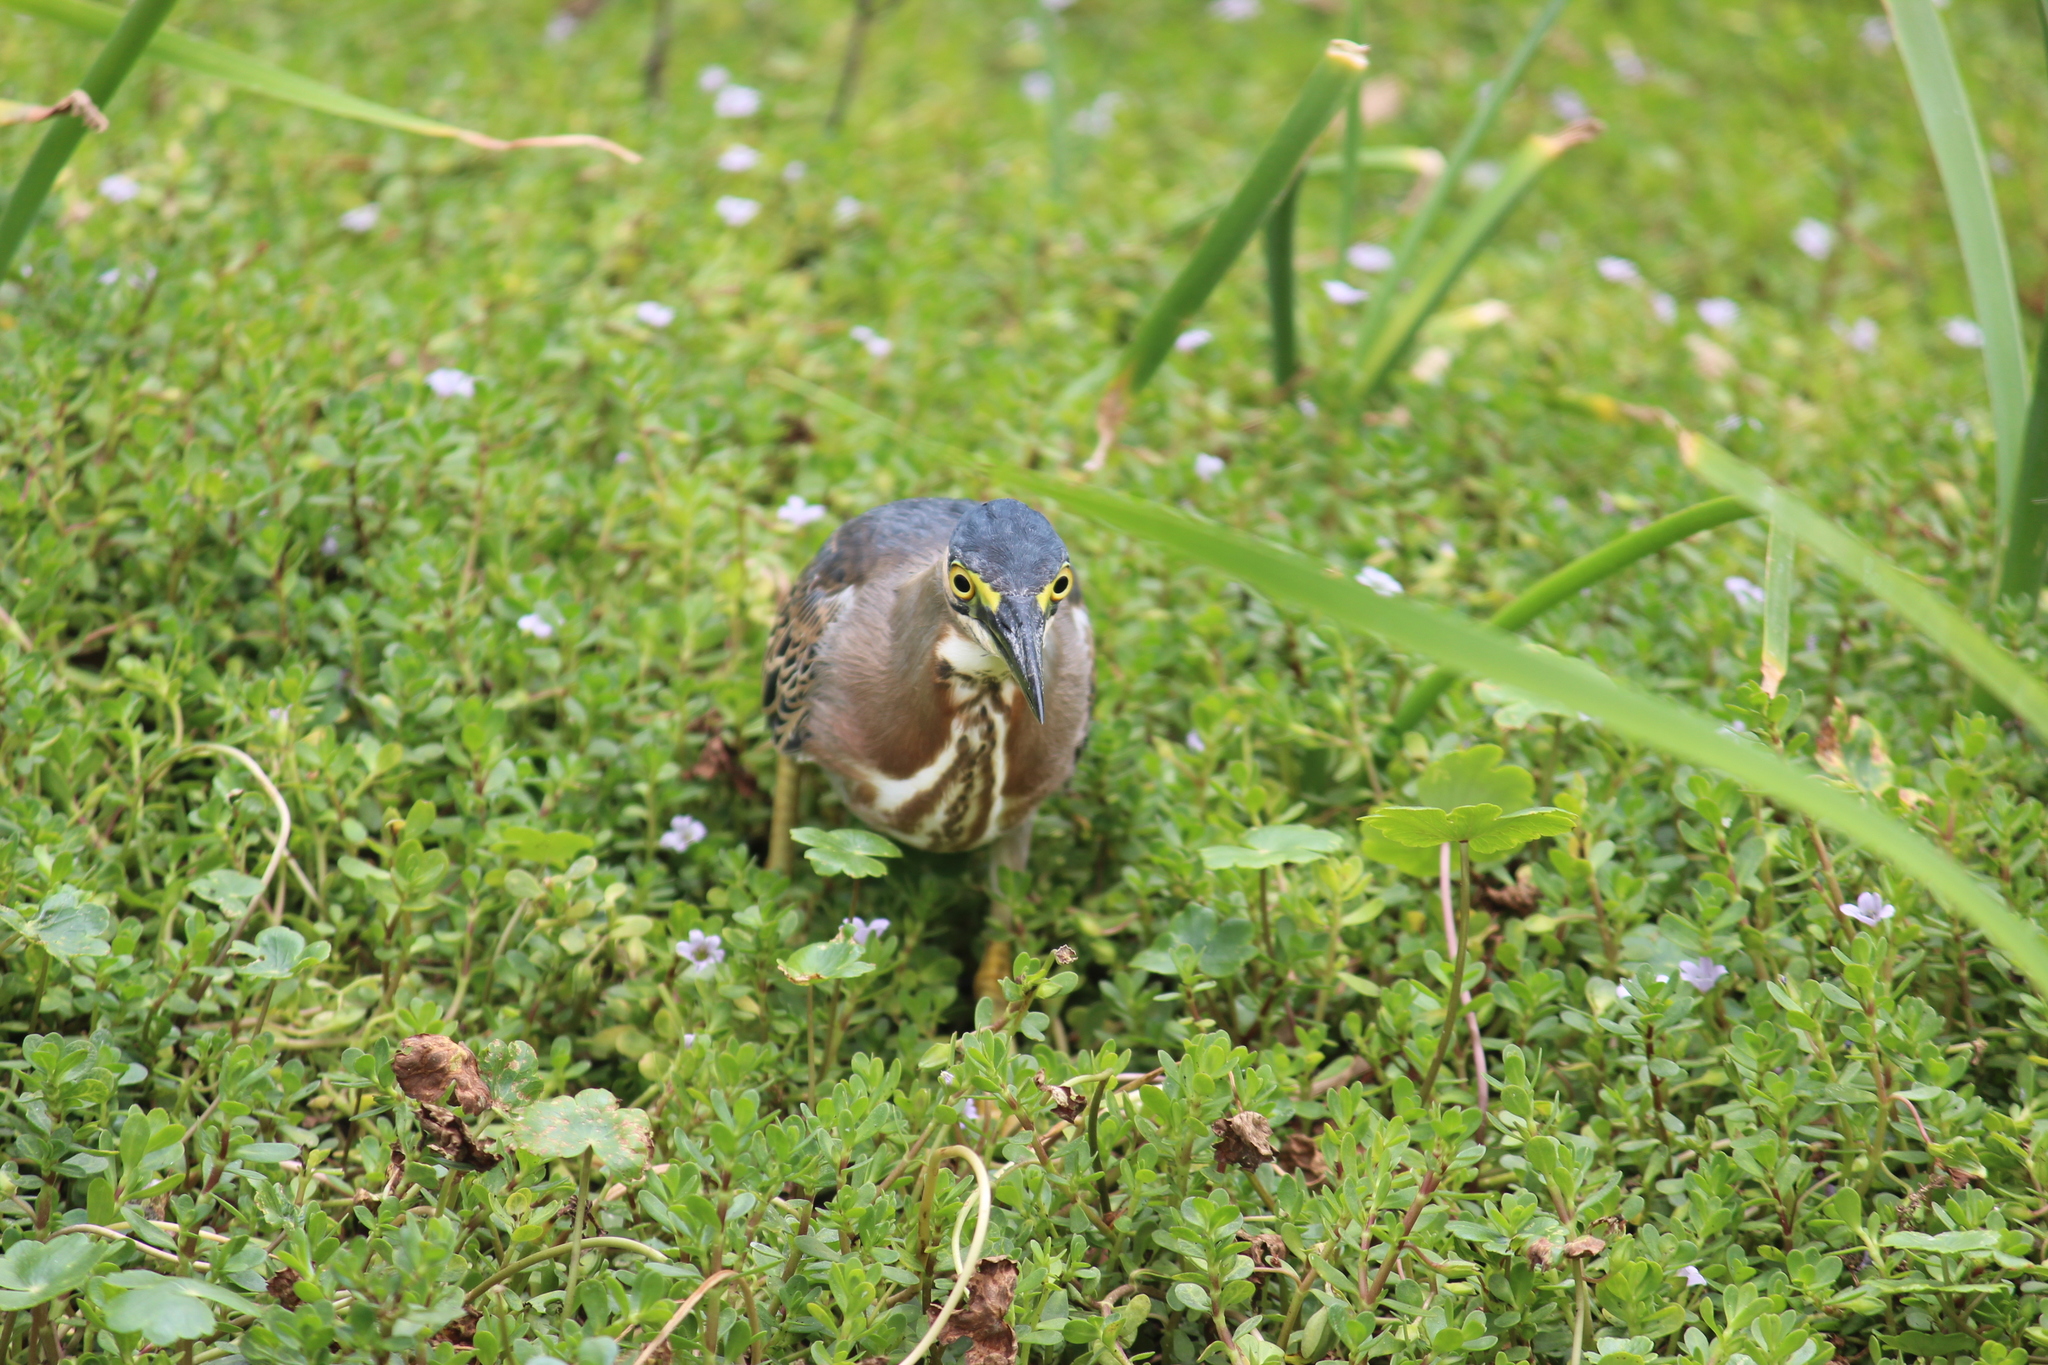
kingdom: Animalia
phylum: Chordata
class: Aves
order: Pelecaniformes
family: Ardeidae
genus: Butorides
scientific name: Butorides striata
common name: Striated heron
